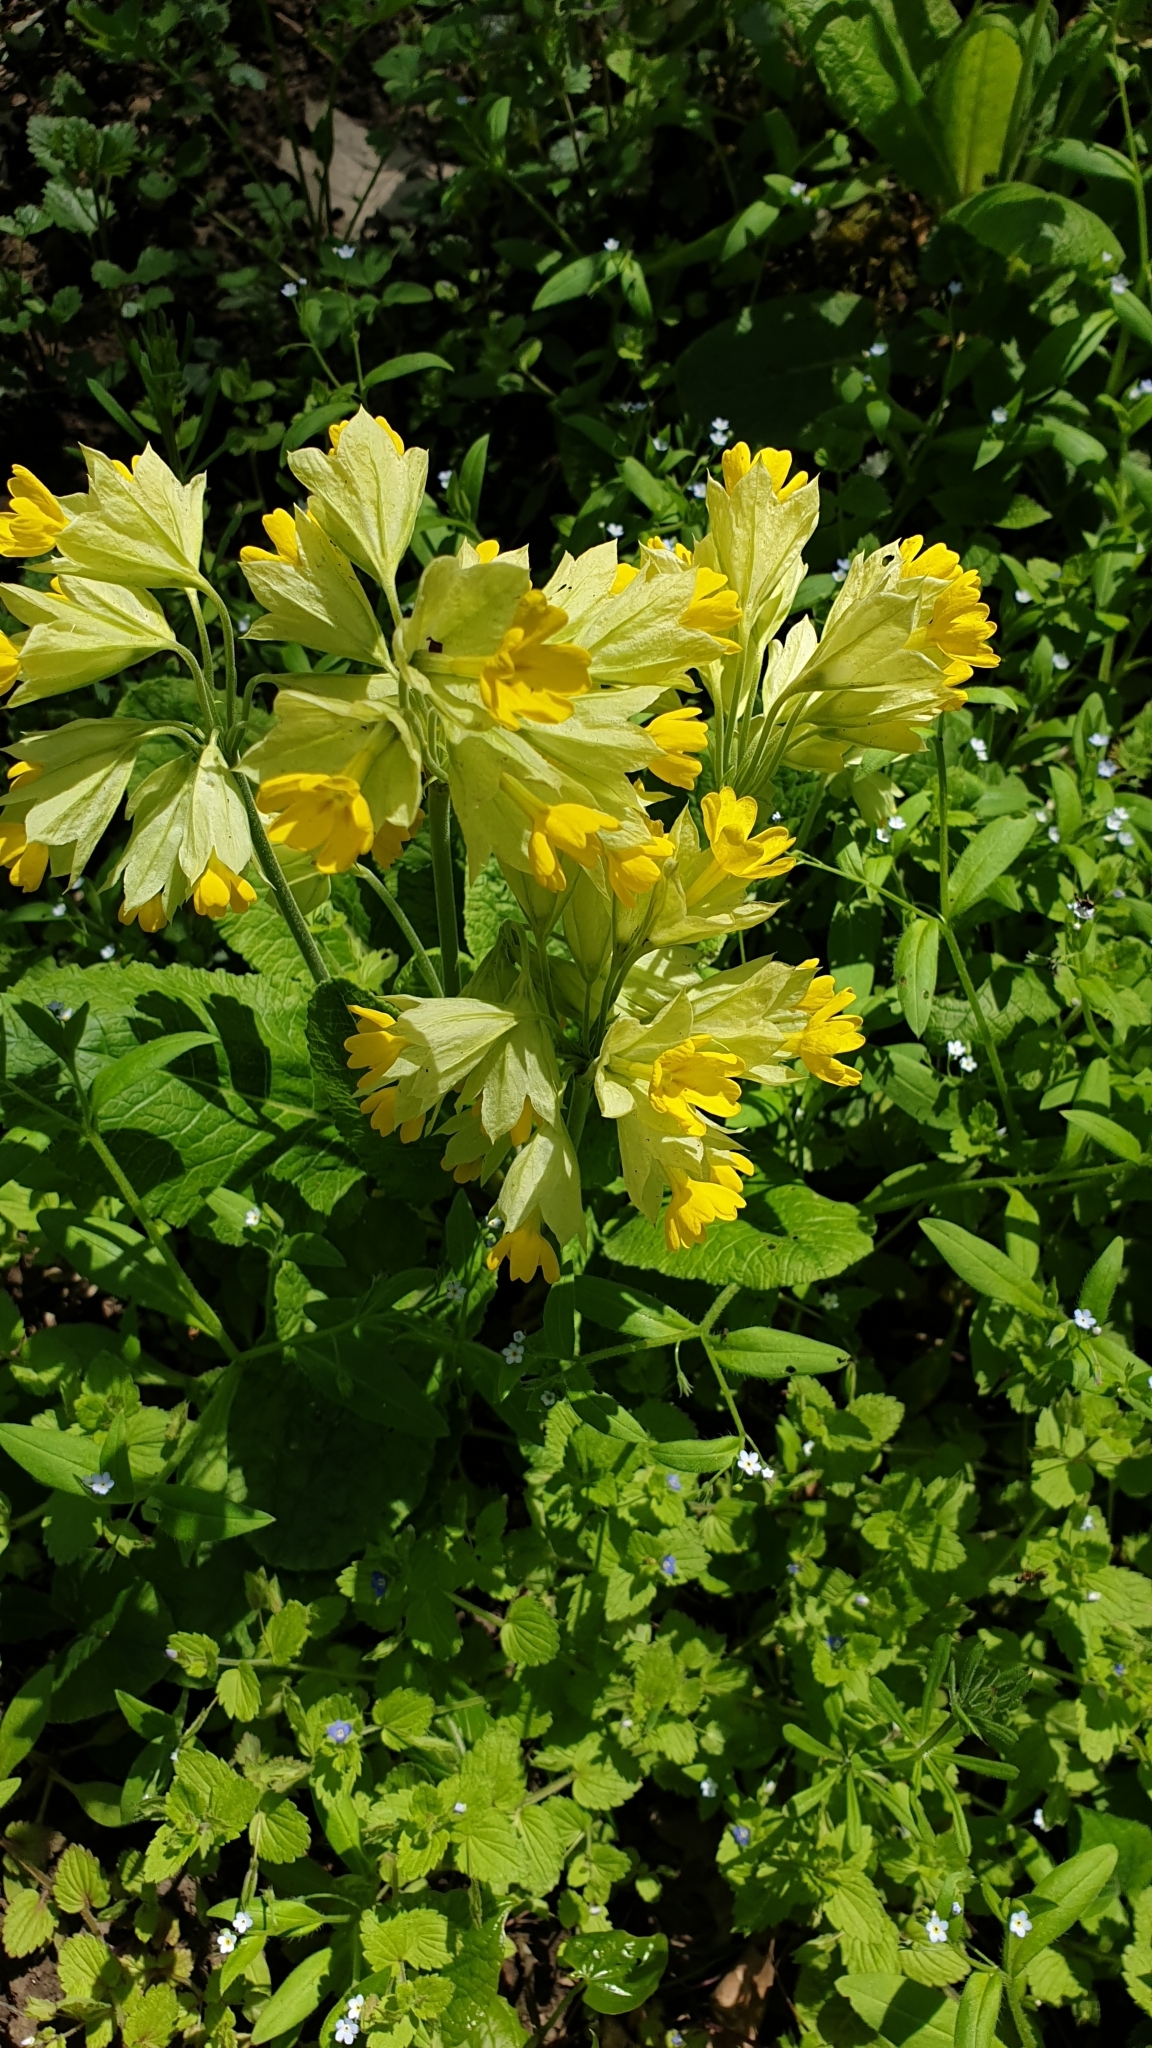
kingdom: Plantae
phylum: Tracheophyta
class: Magnoliopsida
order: Ericales
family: Primulaceae
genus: Primula
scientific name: Primula veris
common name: Cowslip
